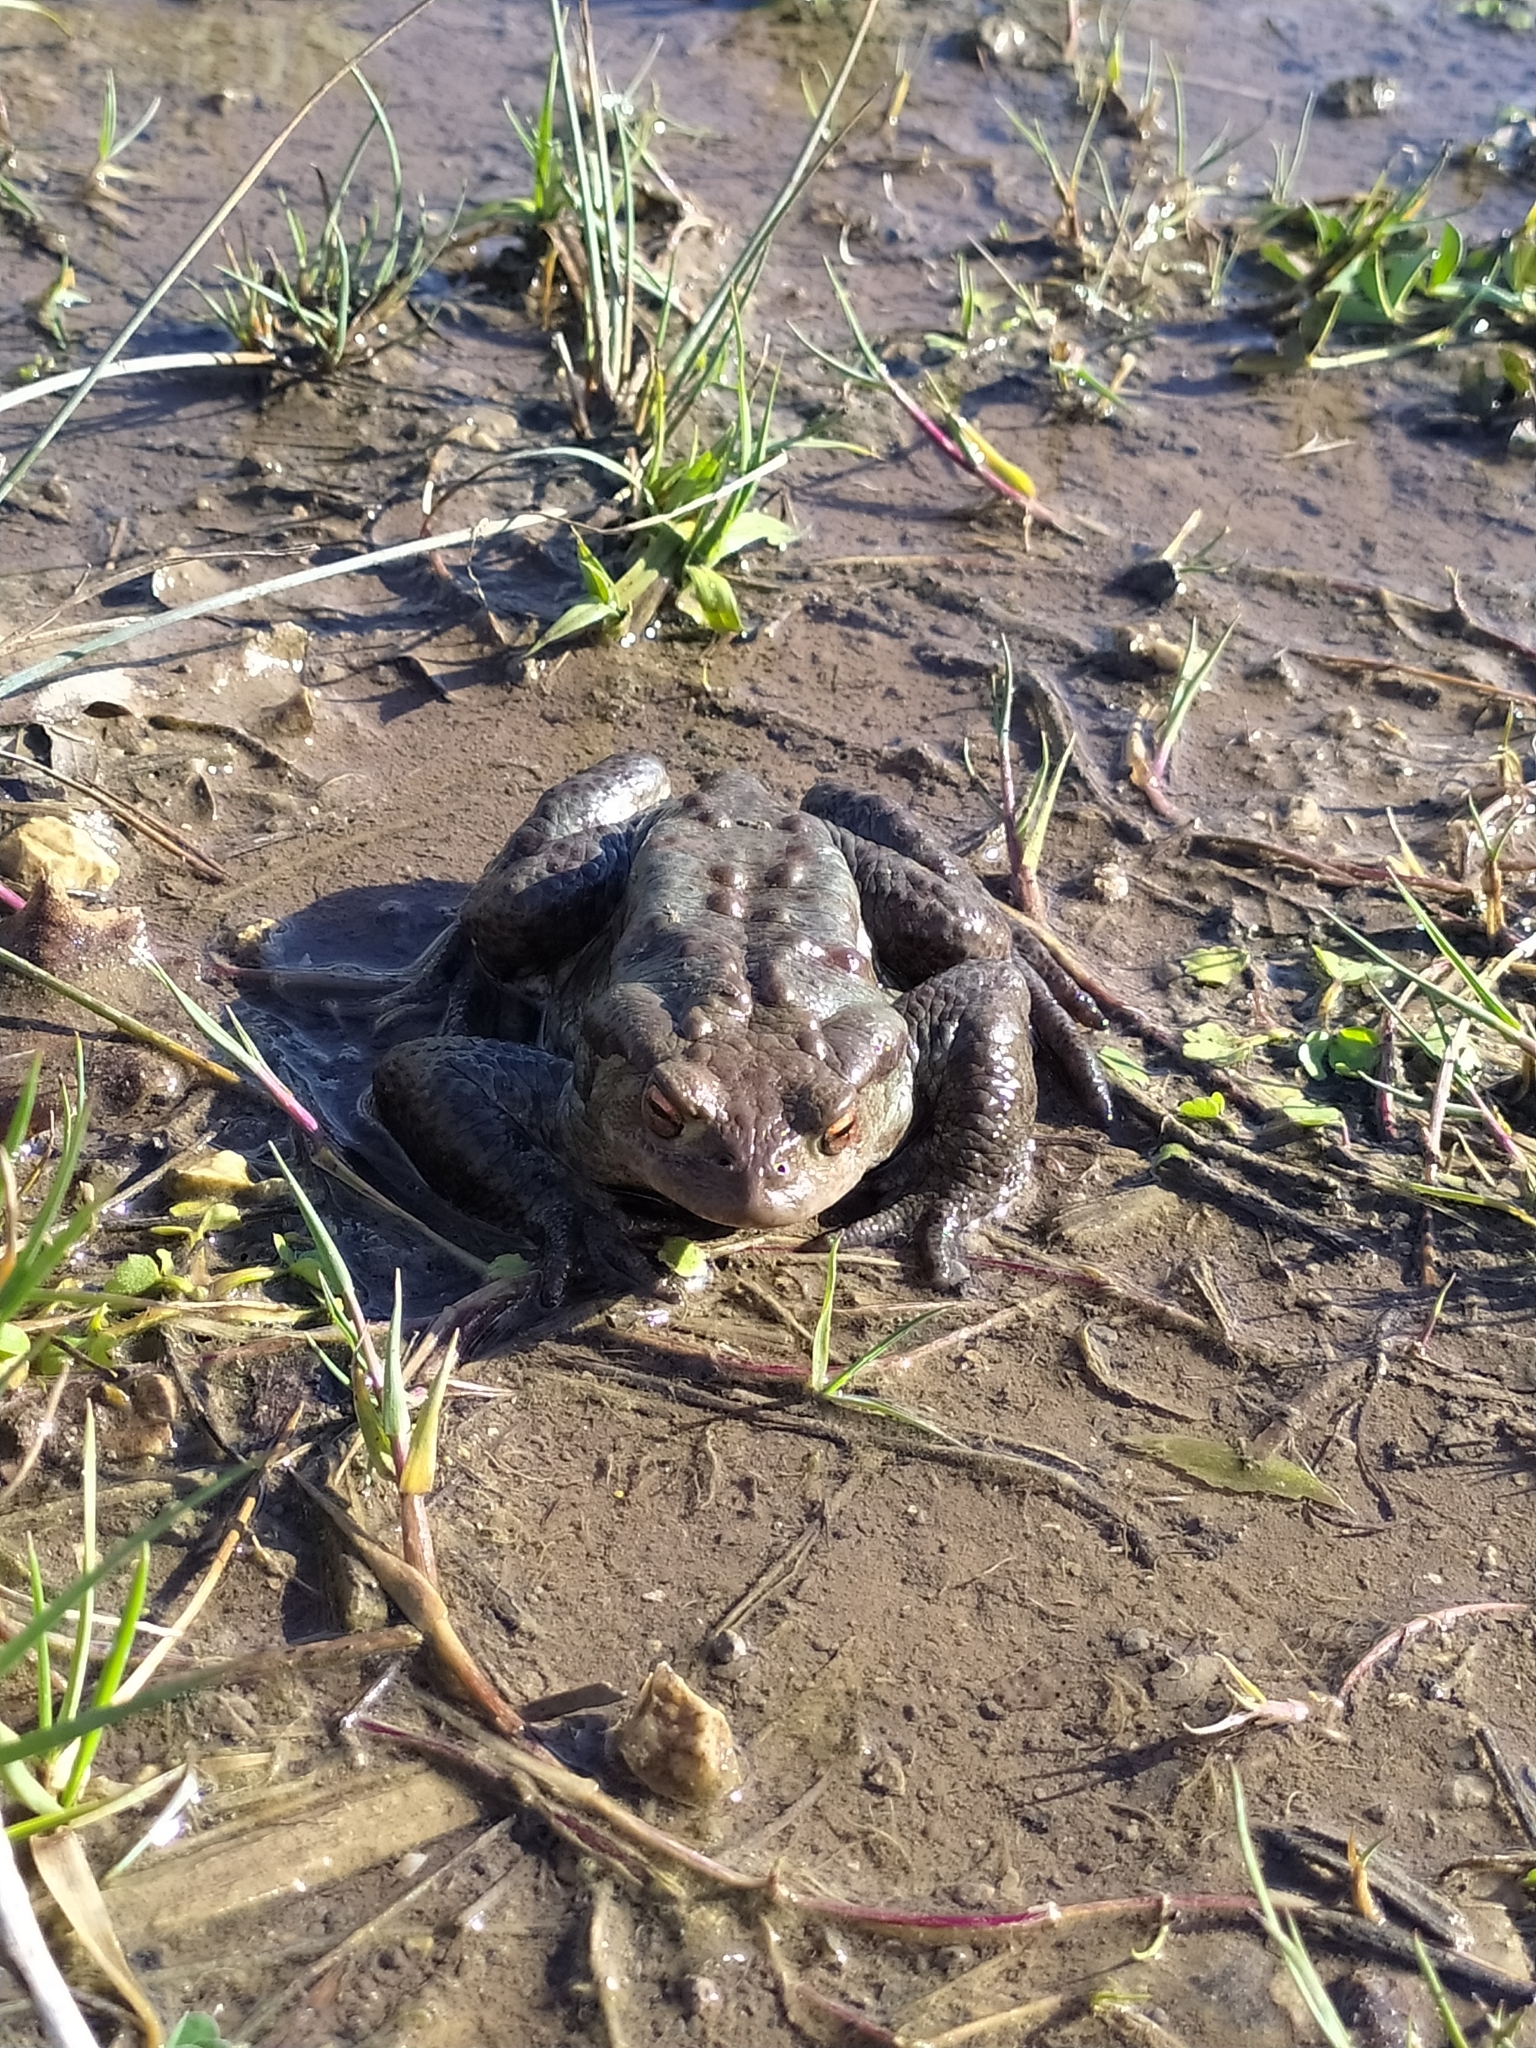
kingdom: Animalia
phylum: Chordata
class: Amphibia
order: Anura
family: Bufonidae
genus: Bufo
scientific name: Bufo bufo
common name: Common toad
